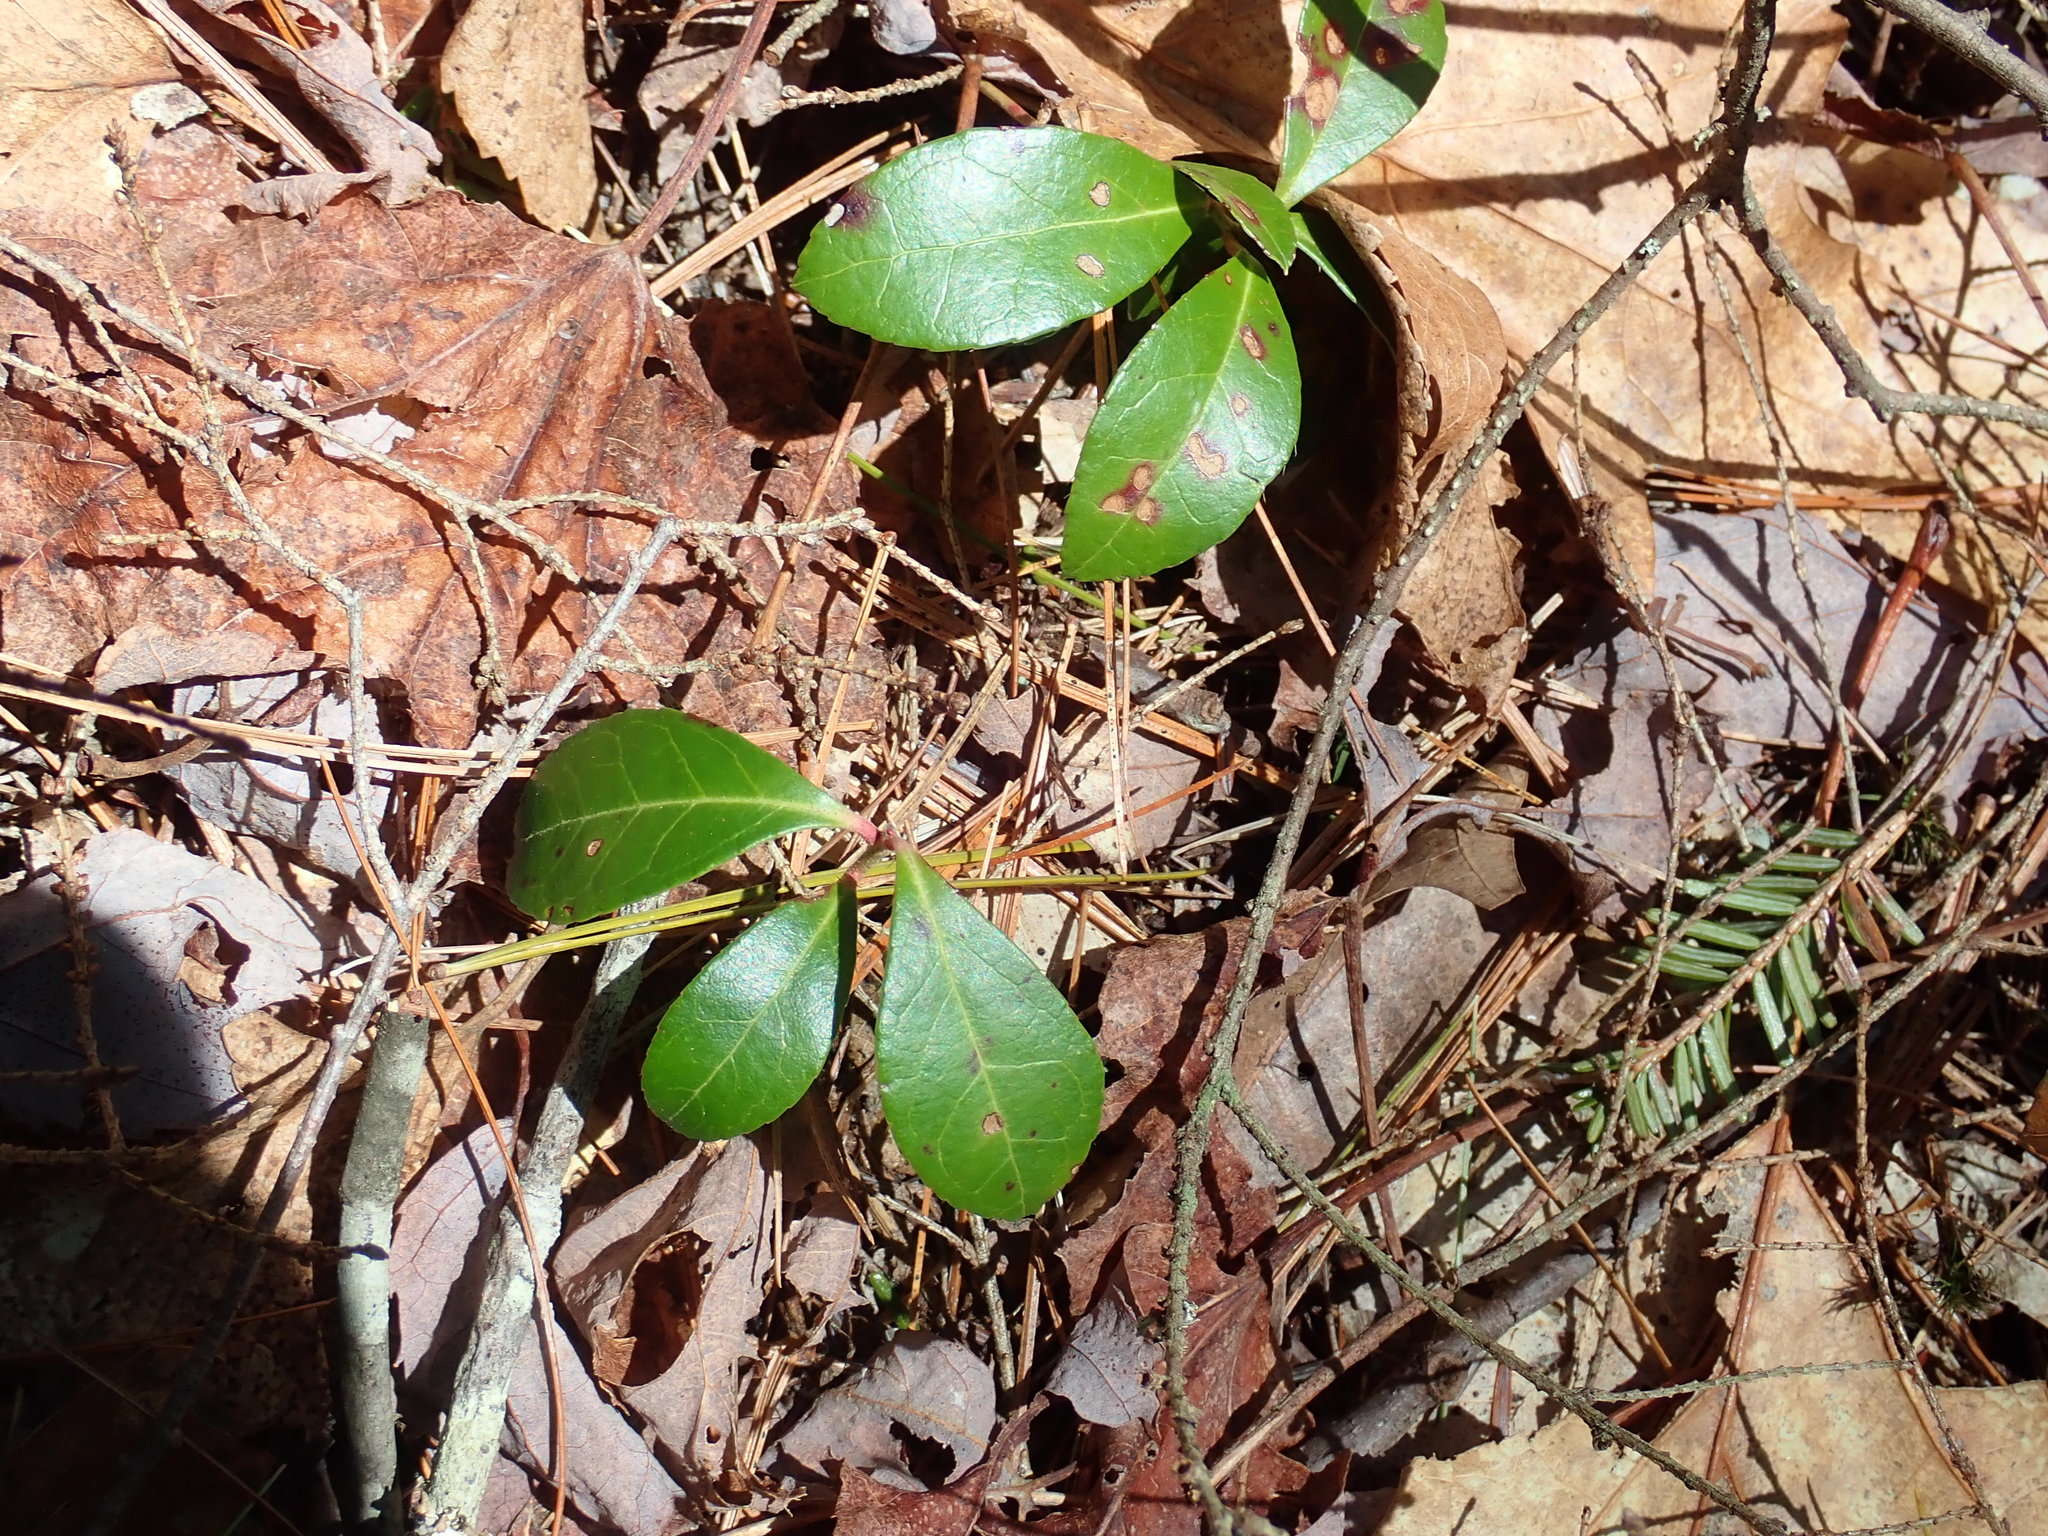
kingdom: Plantae
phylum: Tracheophyta
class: Magnoliopsida
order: Ericales
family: Ericaceae
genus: Gaultheria
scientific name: Gaultheria procumbens
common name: Checkerberry
